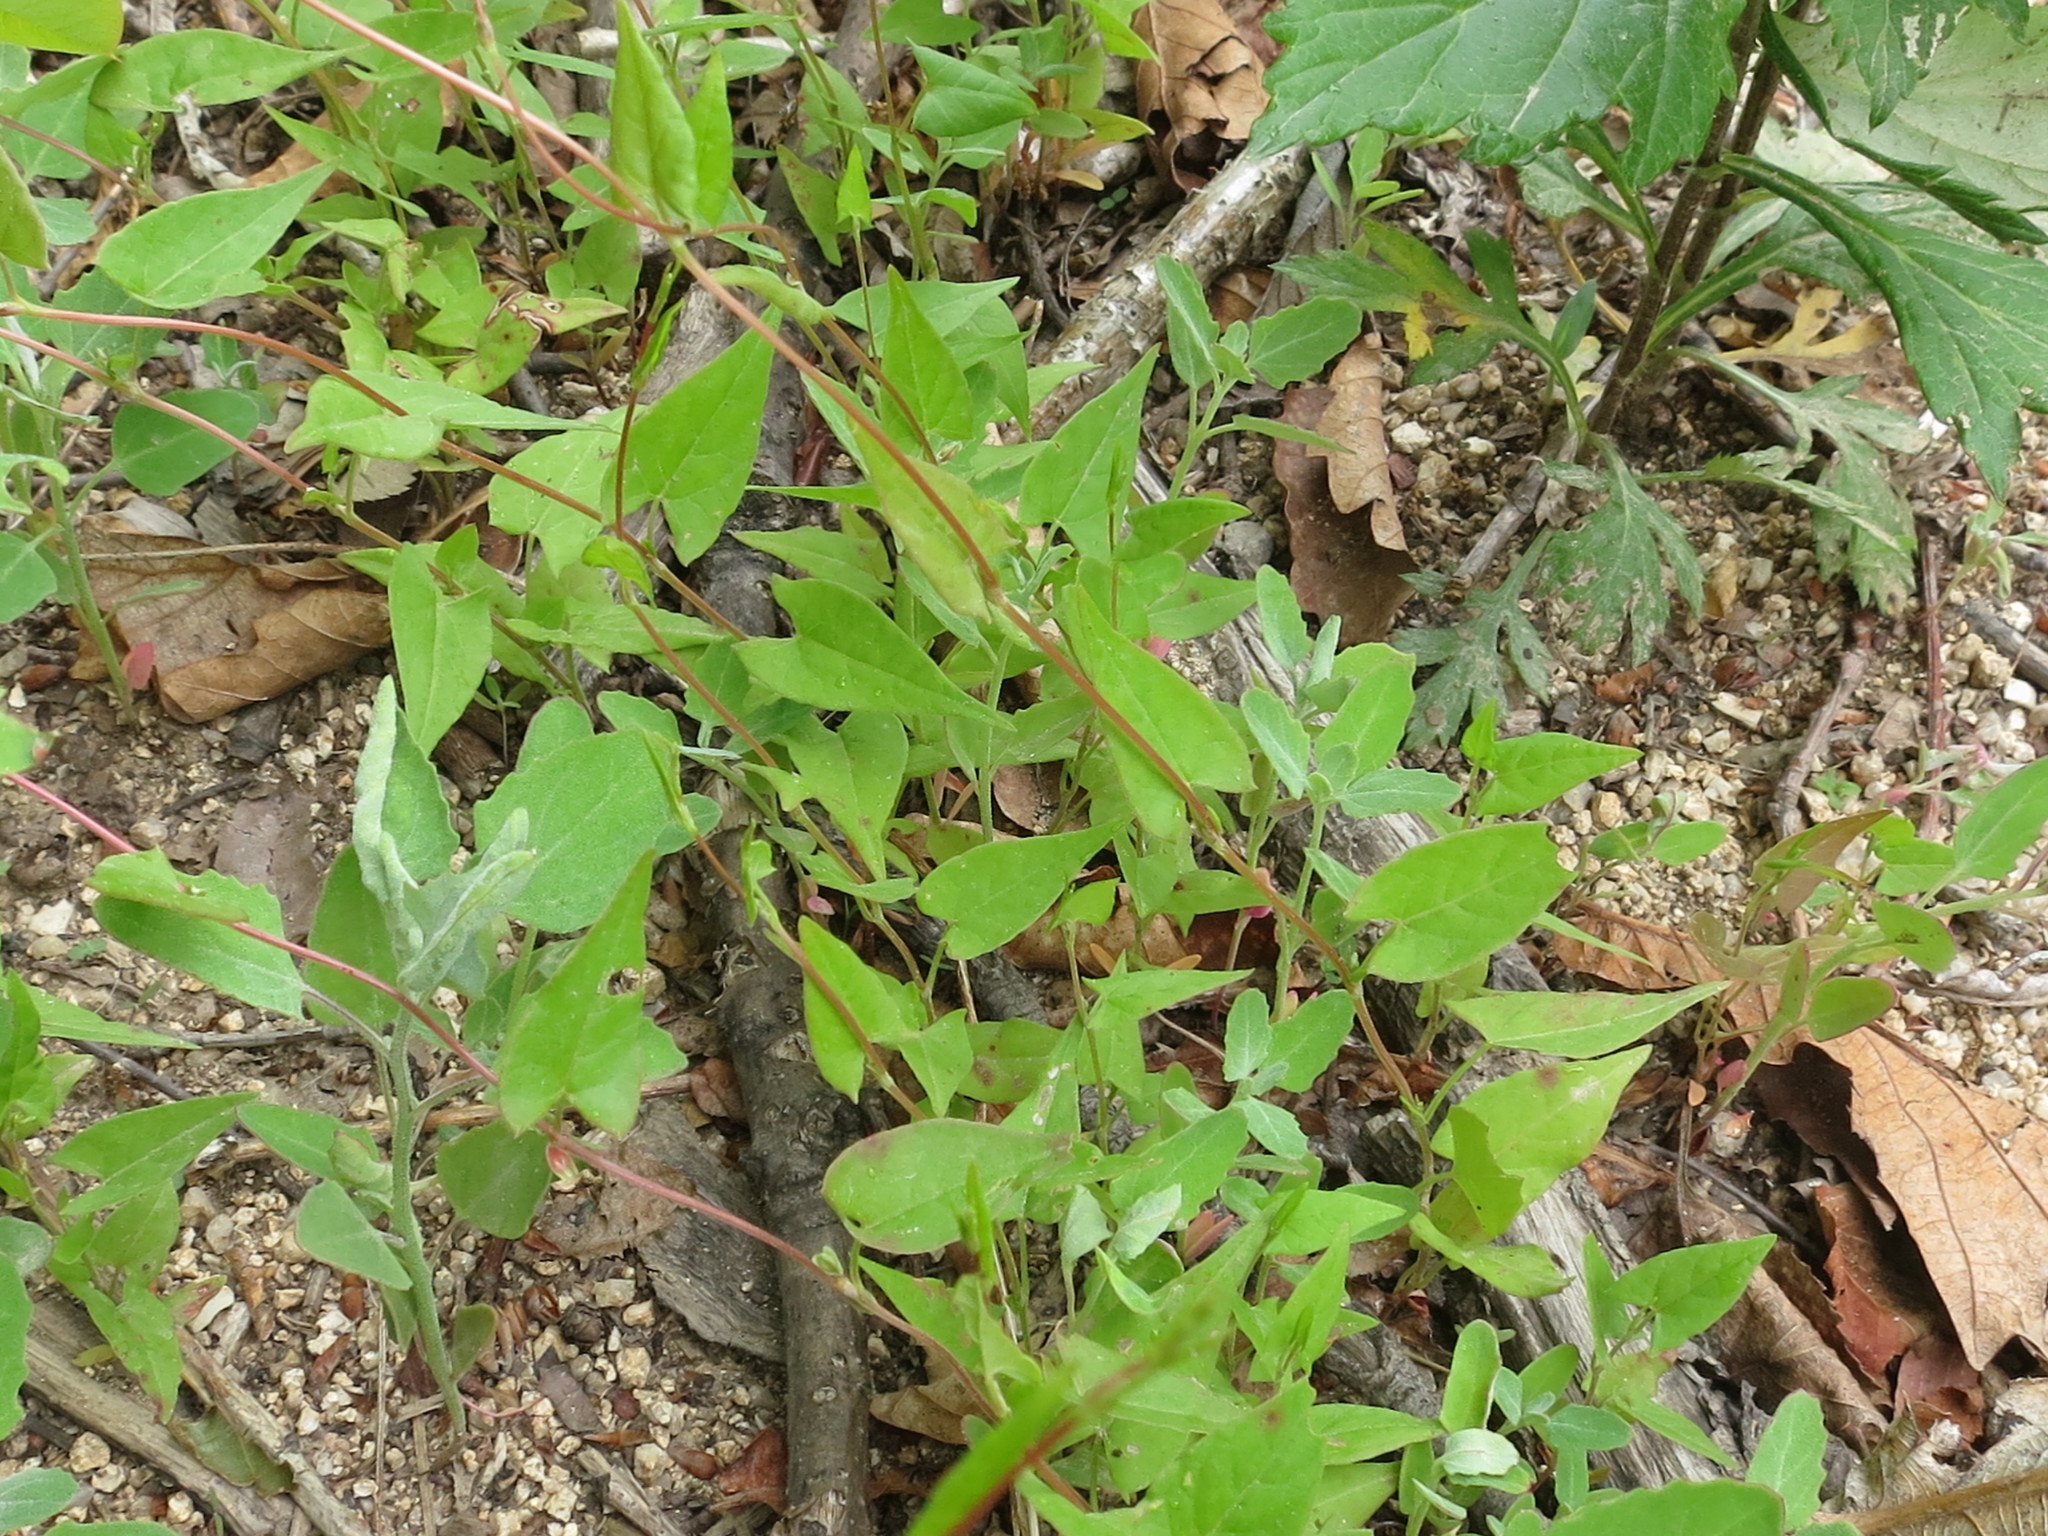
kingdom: Plantae
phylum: Tracheophyta
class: Magnoliopsida
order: Caryophyllales
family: Polygonaceae
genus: Fallopia
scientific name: Fallopia convolvulus
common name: Black bindweed
